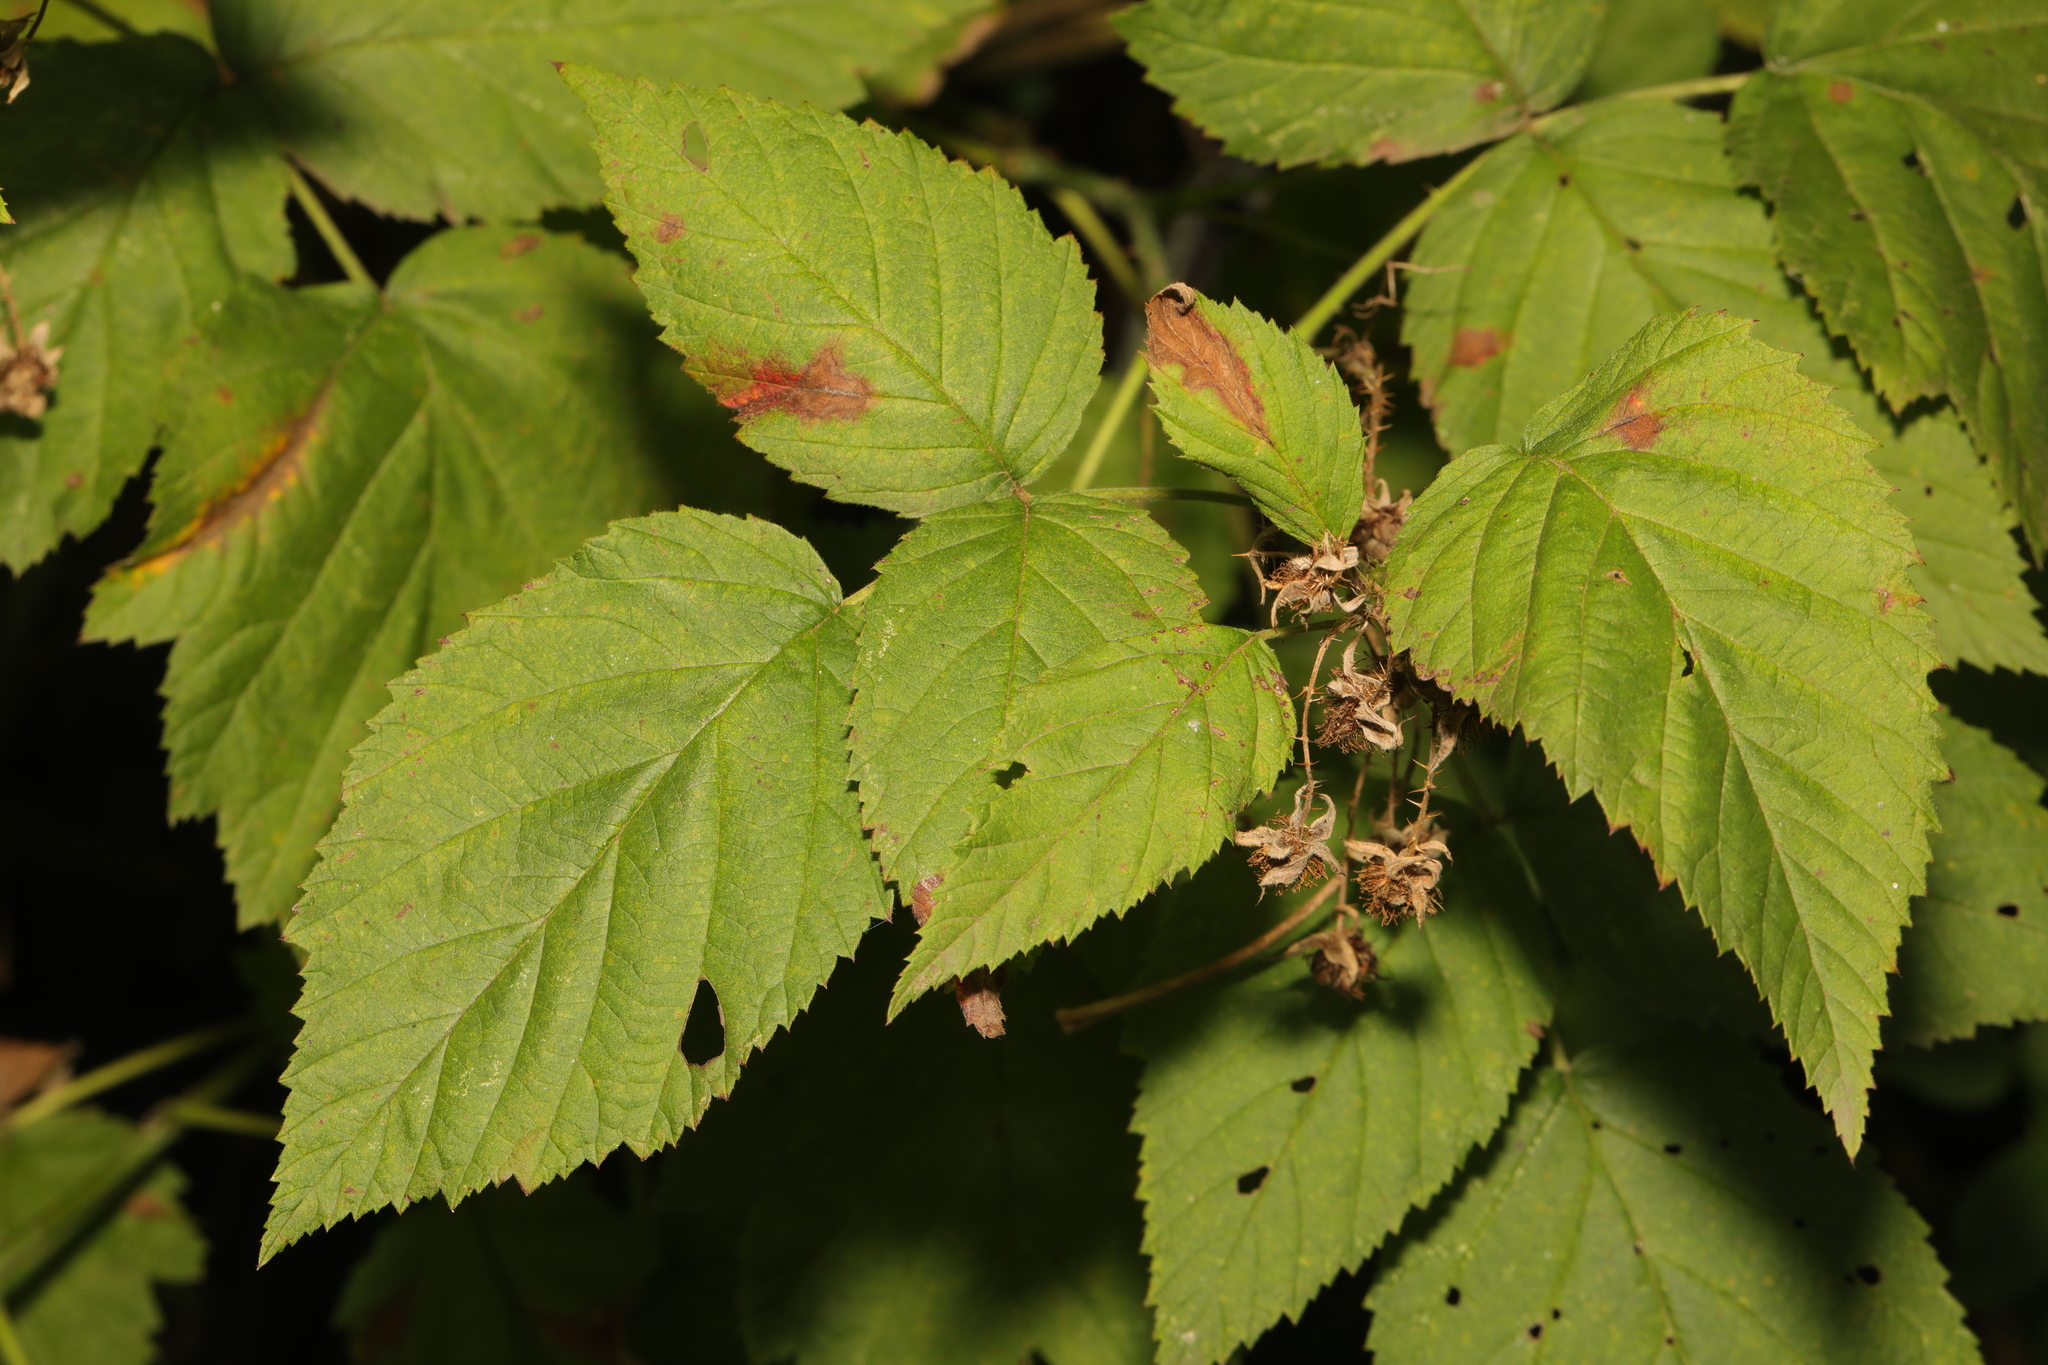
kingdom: Plantae
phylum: Tracheophyta
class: Magnoliopsida
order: Rosales
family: Rosaceae
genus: Rubus
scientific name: Rubus idaeoides
